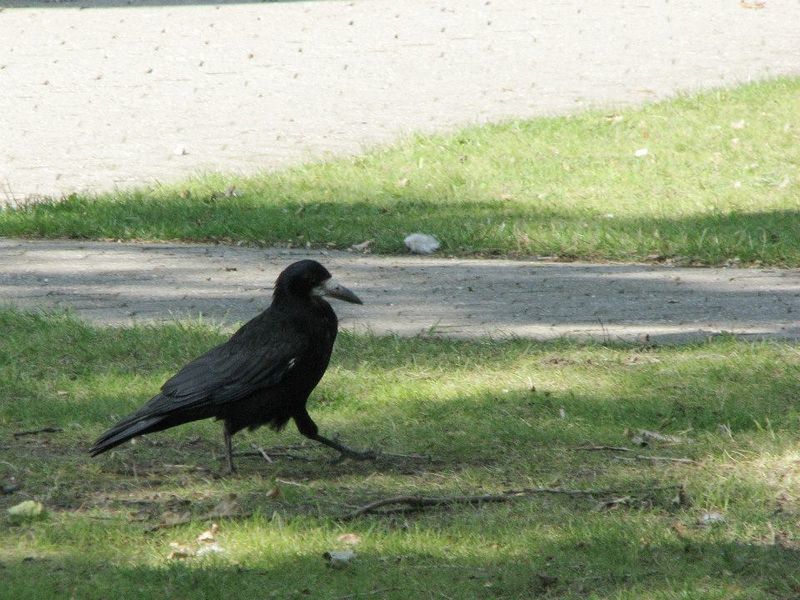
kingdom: Animalia
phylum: Chordata
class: Aves
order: Passeriformes
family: Corvidae
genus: Corvus
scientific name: Corvus frugilegus
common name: Rook
